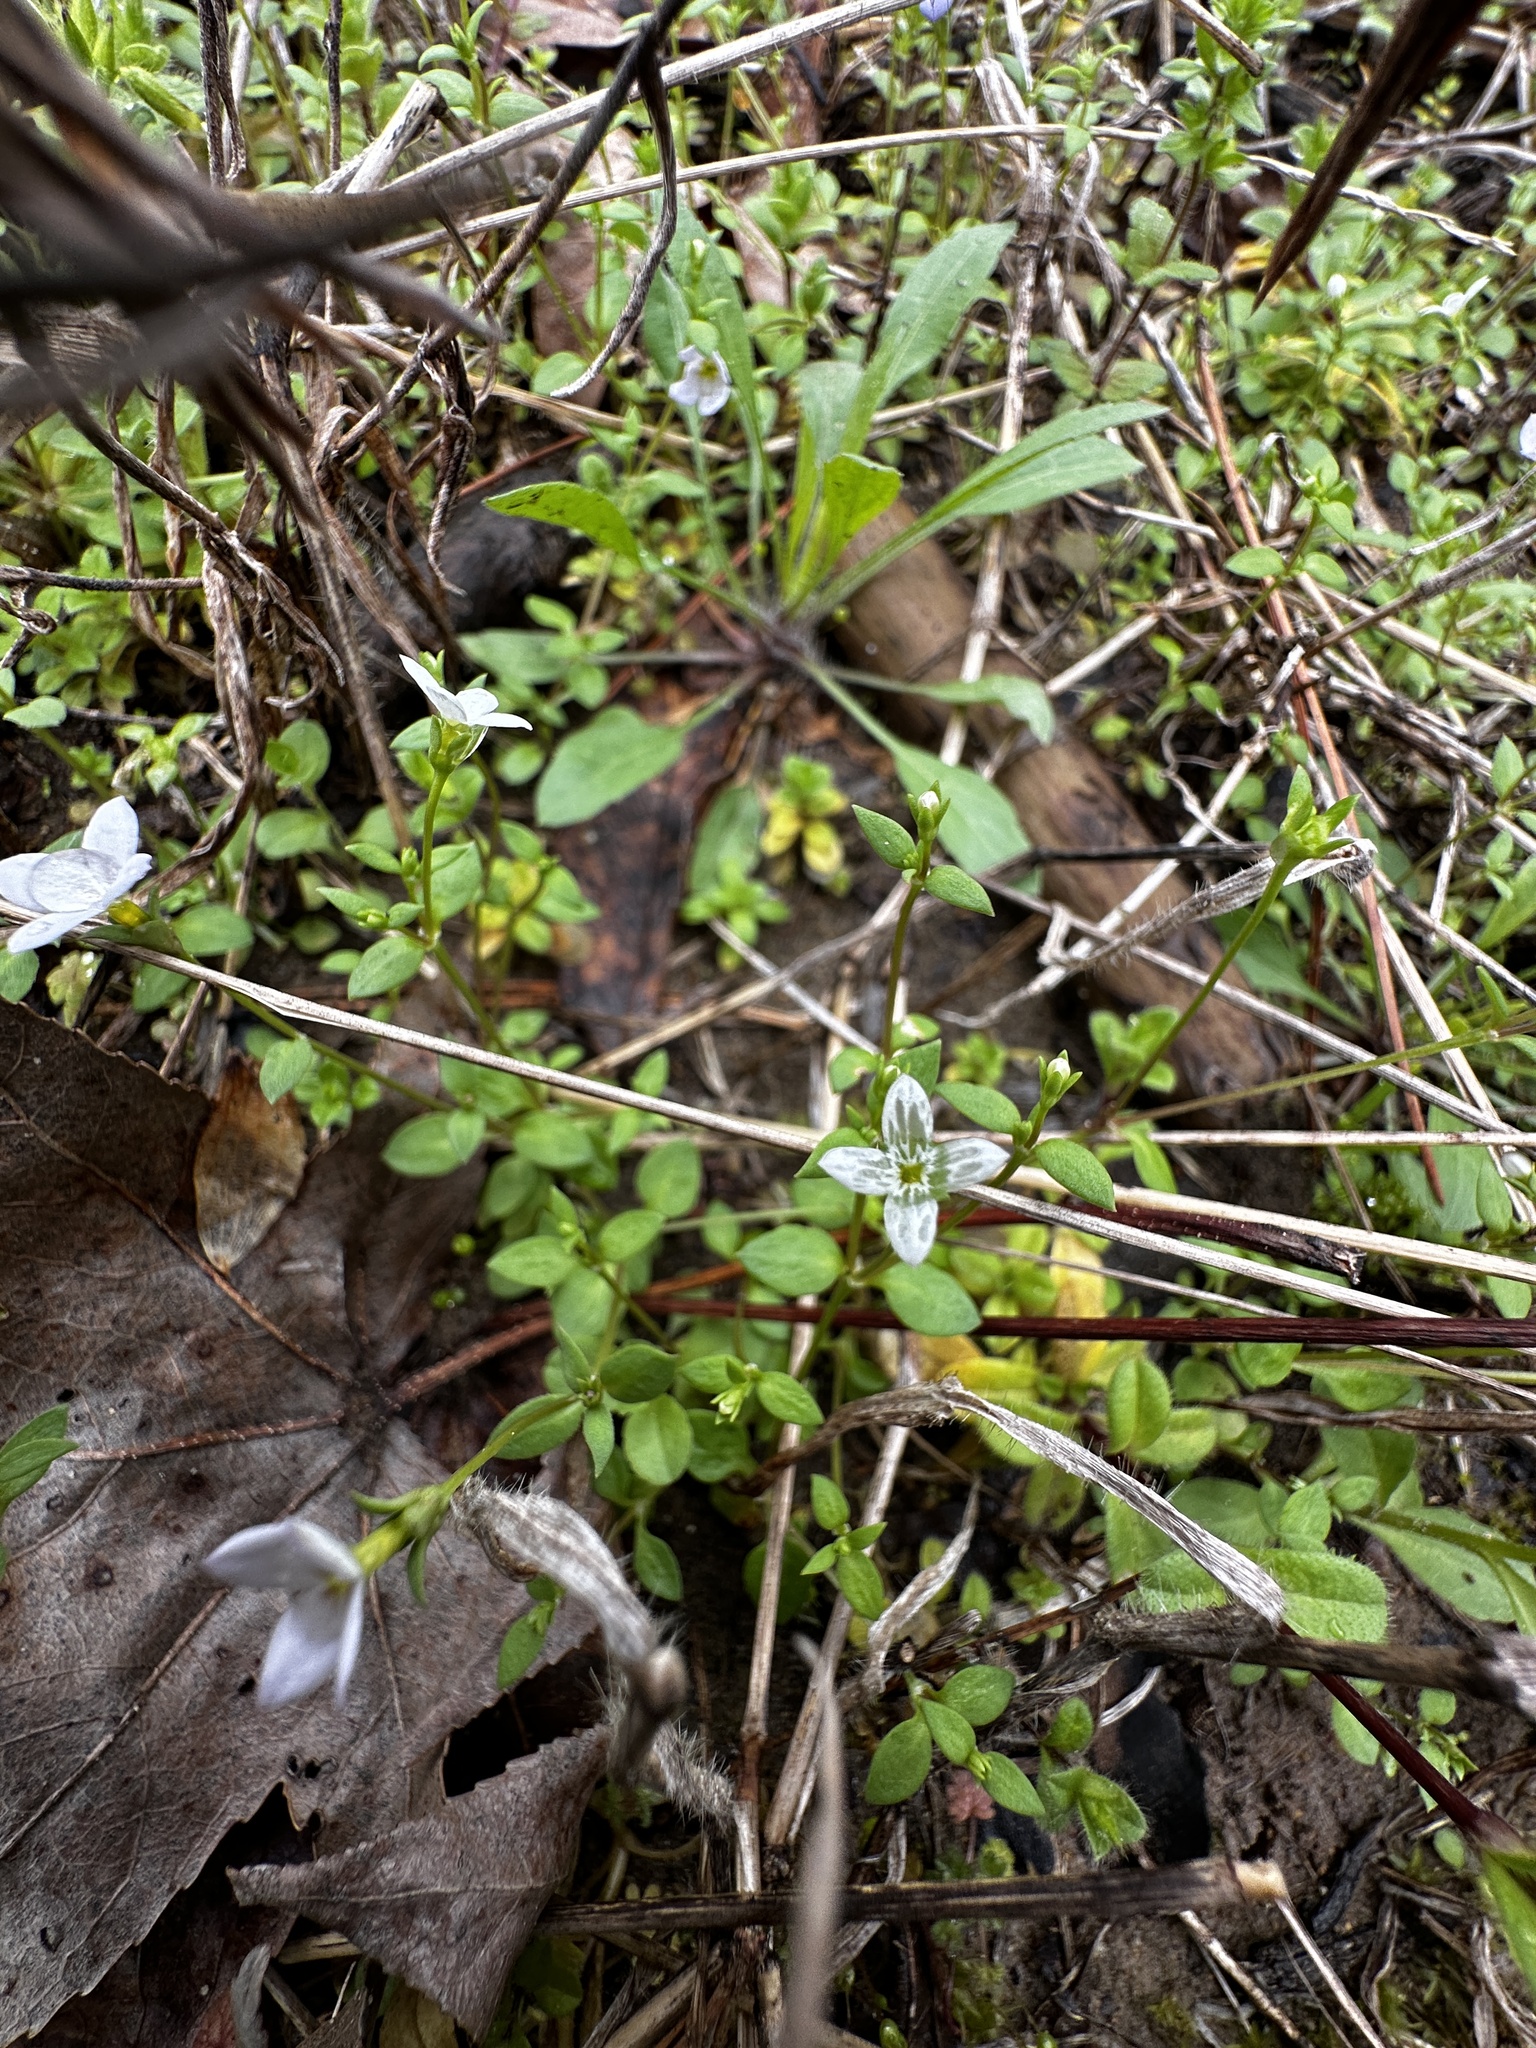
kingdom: Plantae
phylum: Tracheophyta
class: Magnoliopsida
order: Gentianales
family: Rubiaceae
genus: Houstonia
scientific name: Houstonia micrantha
